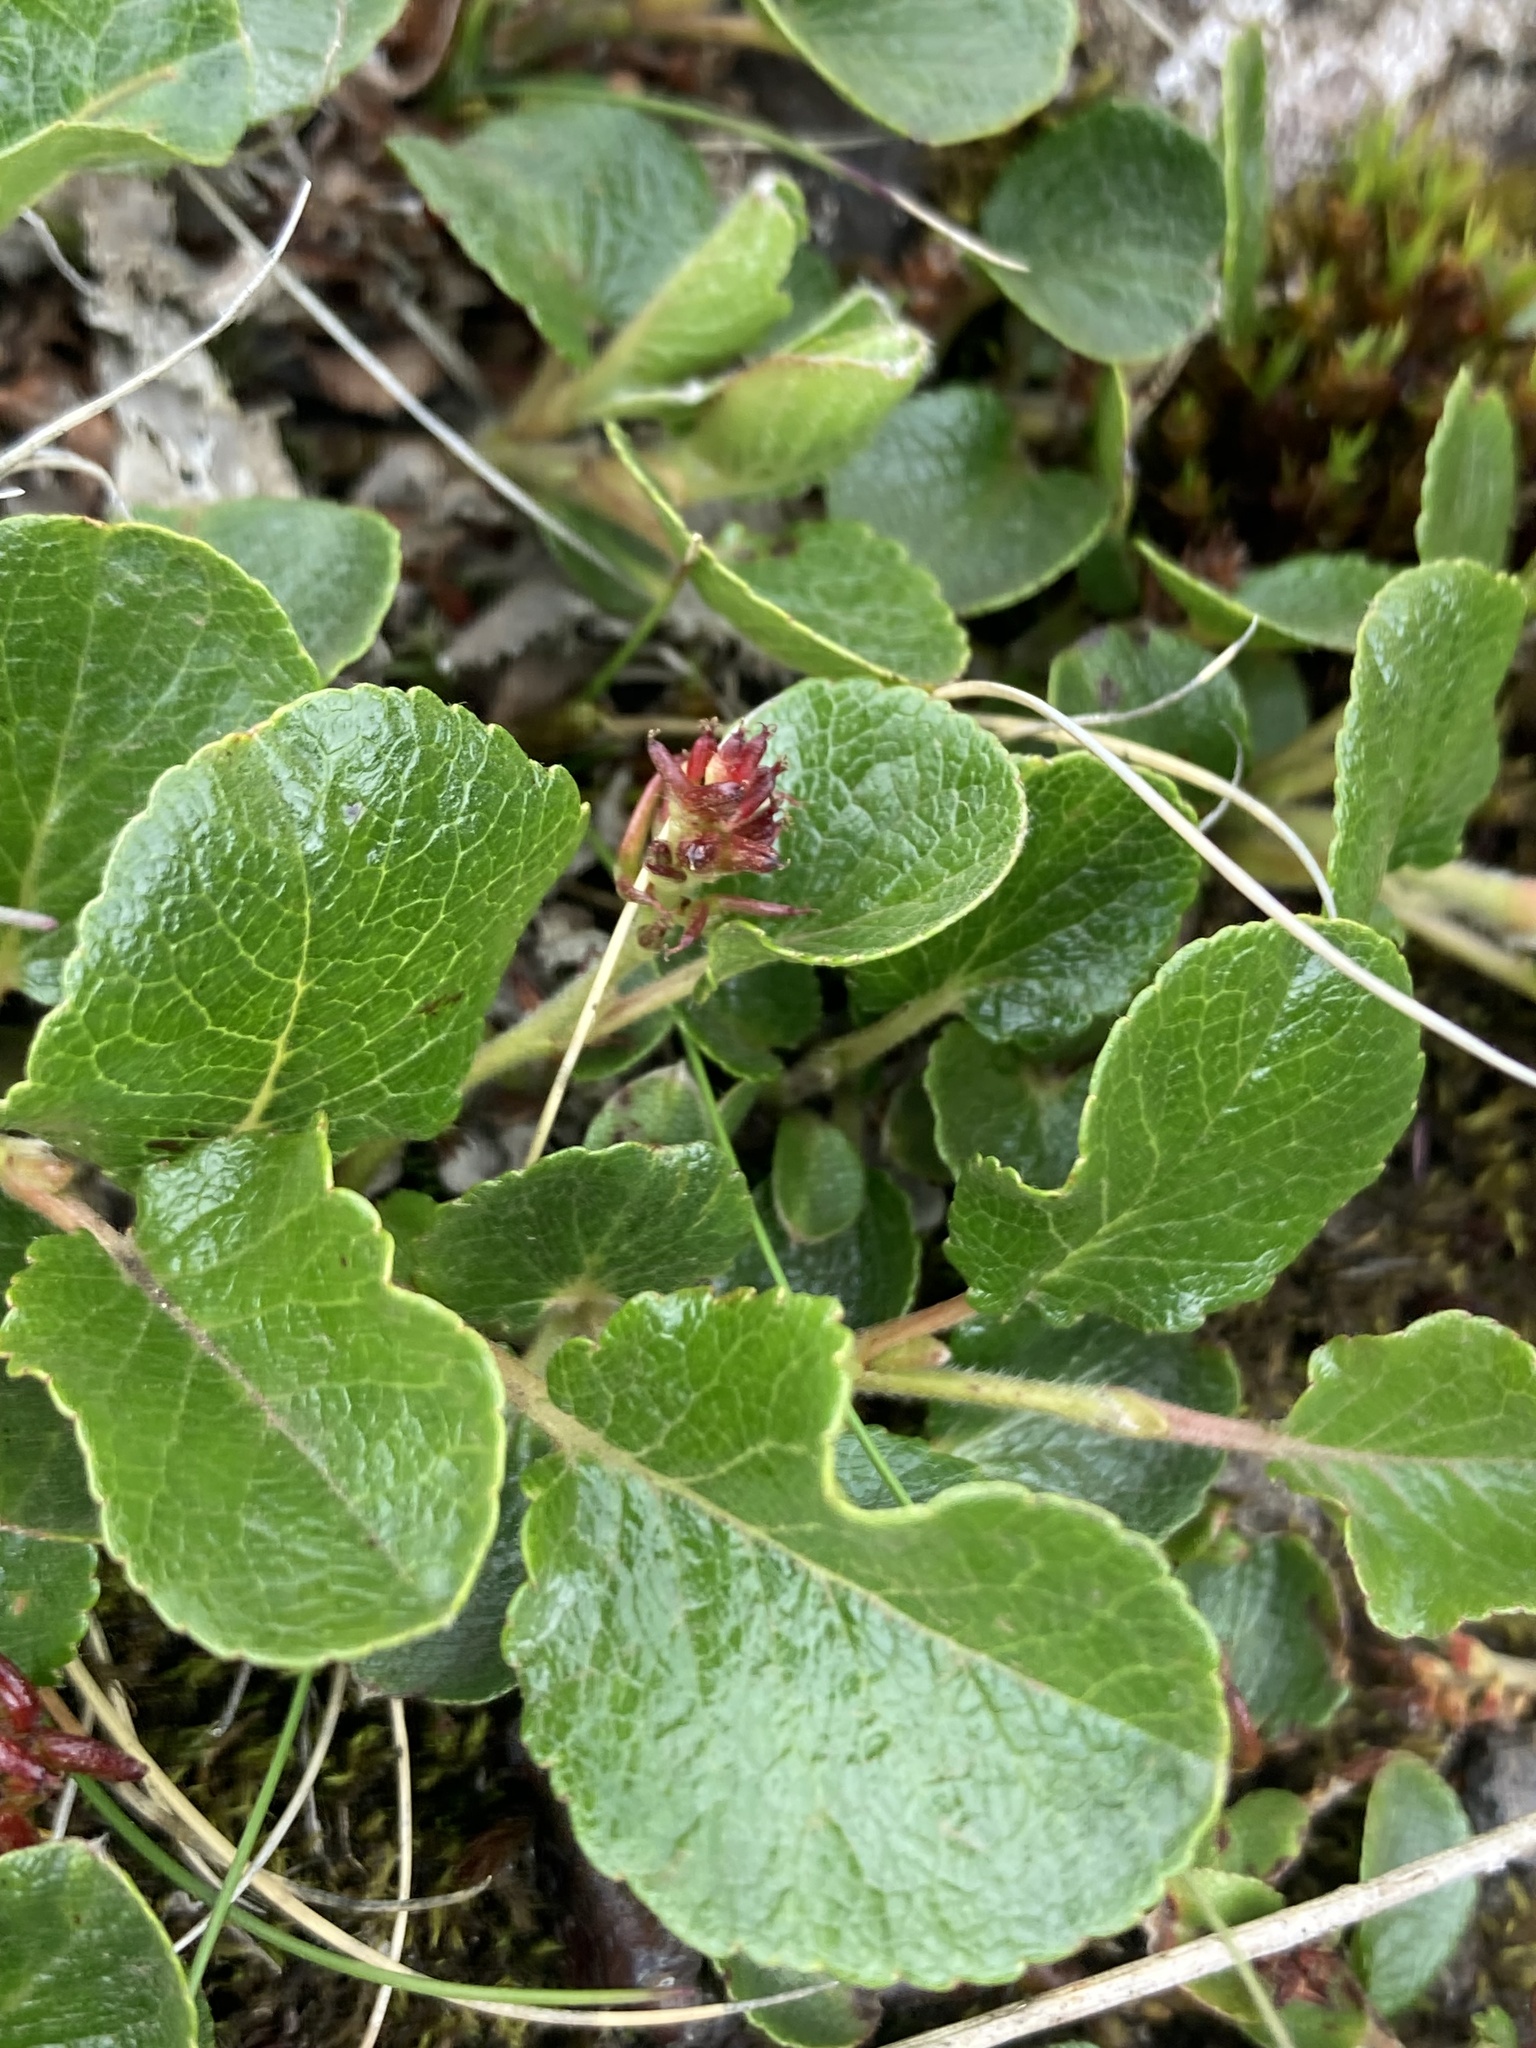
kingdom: Plantae
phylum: Tracheophyta
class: Magnoliopsida
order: Malpighiales
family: Salicaceae
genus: Salix
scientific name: Salix herbacea
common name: Dwarf willow
